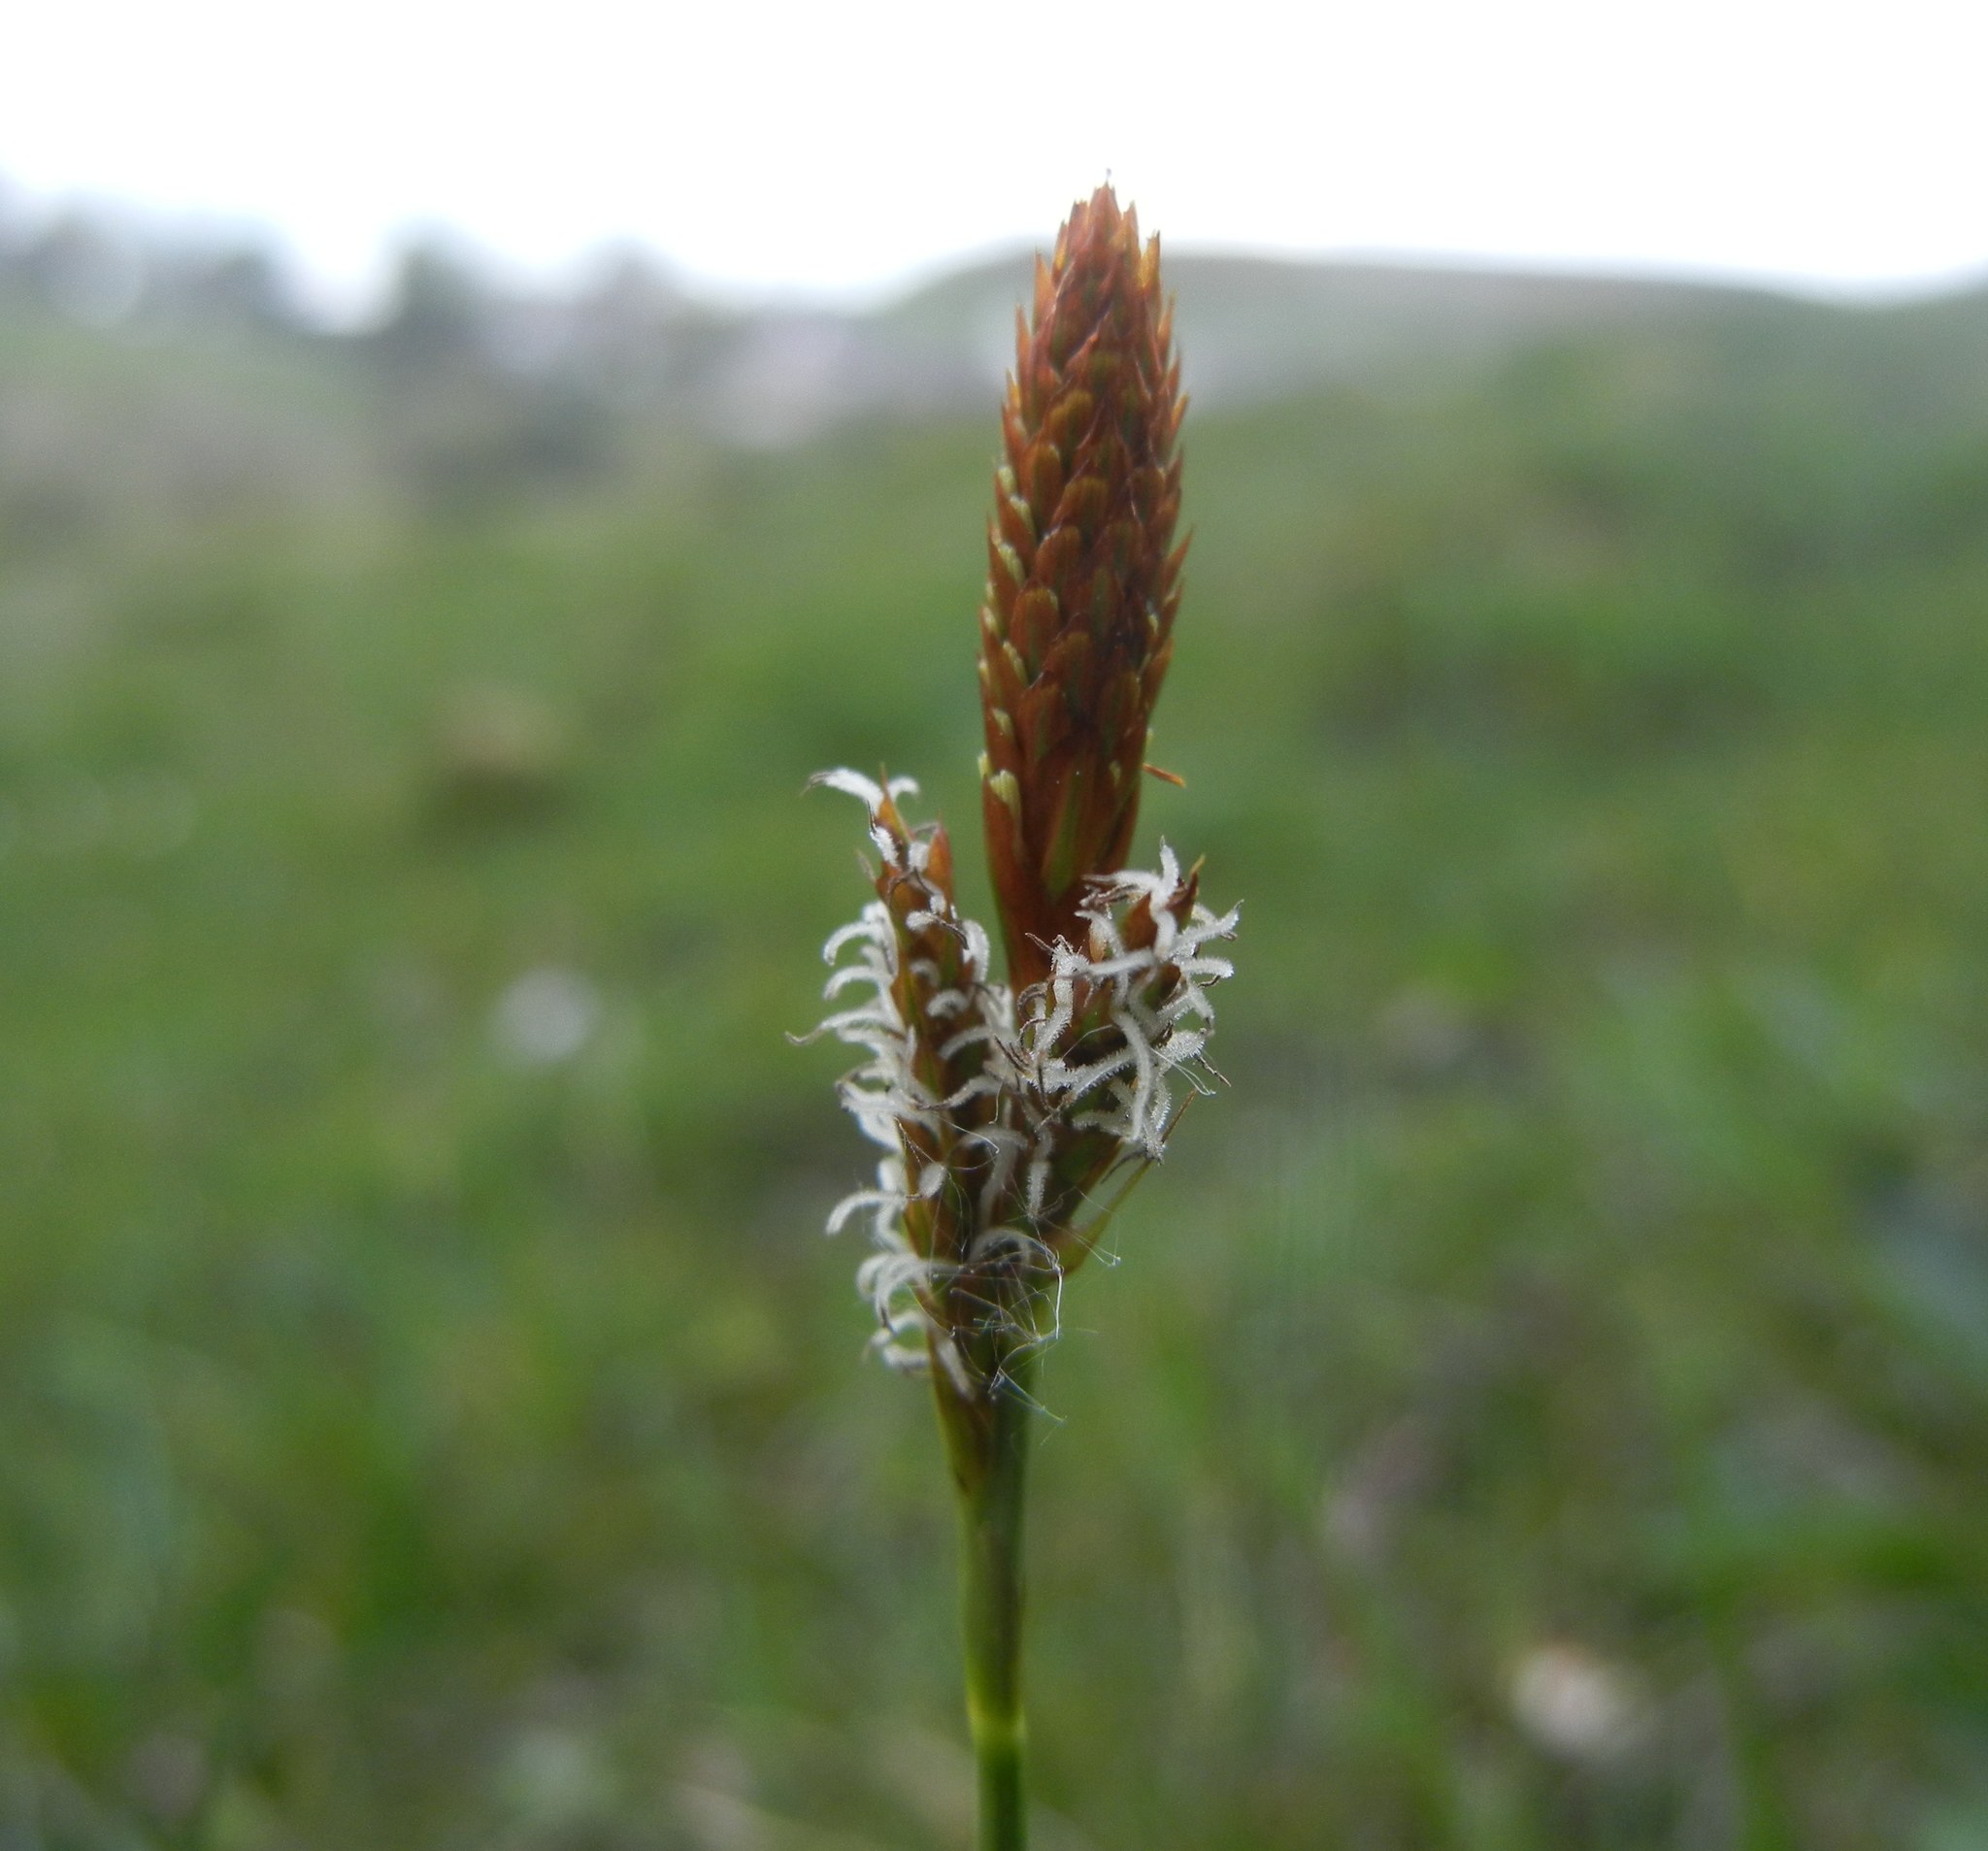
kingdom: Plantae
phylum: Tracheophyta
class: Liliopsida
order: Poales
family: Cyperaceae
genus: Carex
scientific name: Carex caryophyllea
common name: Spring sedge
